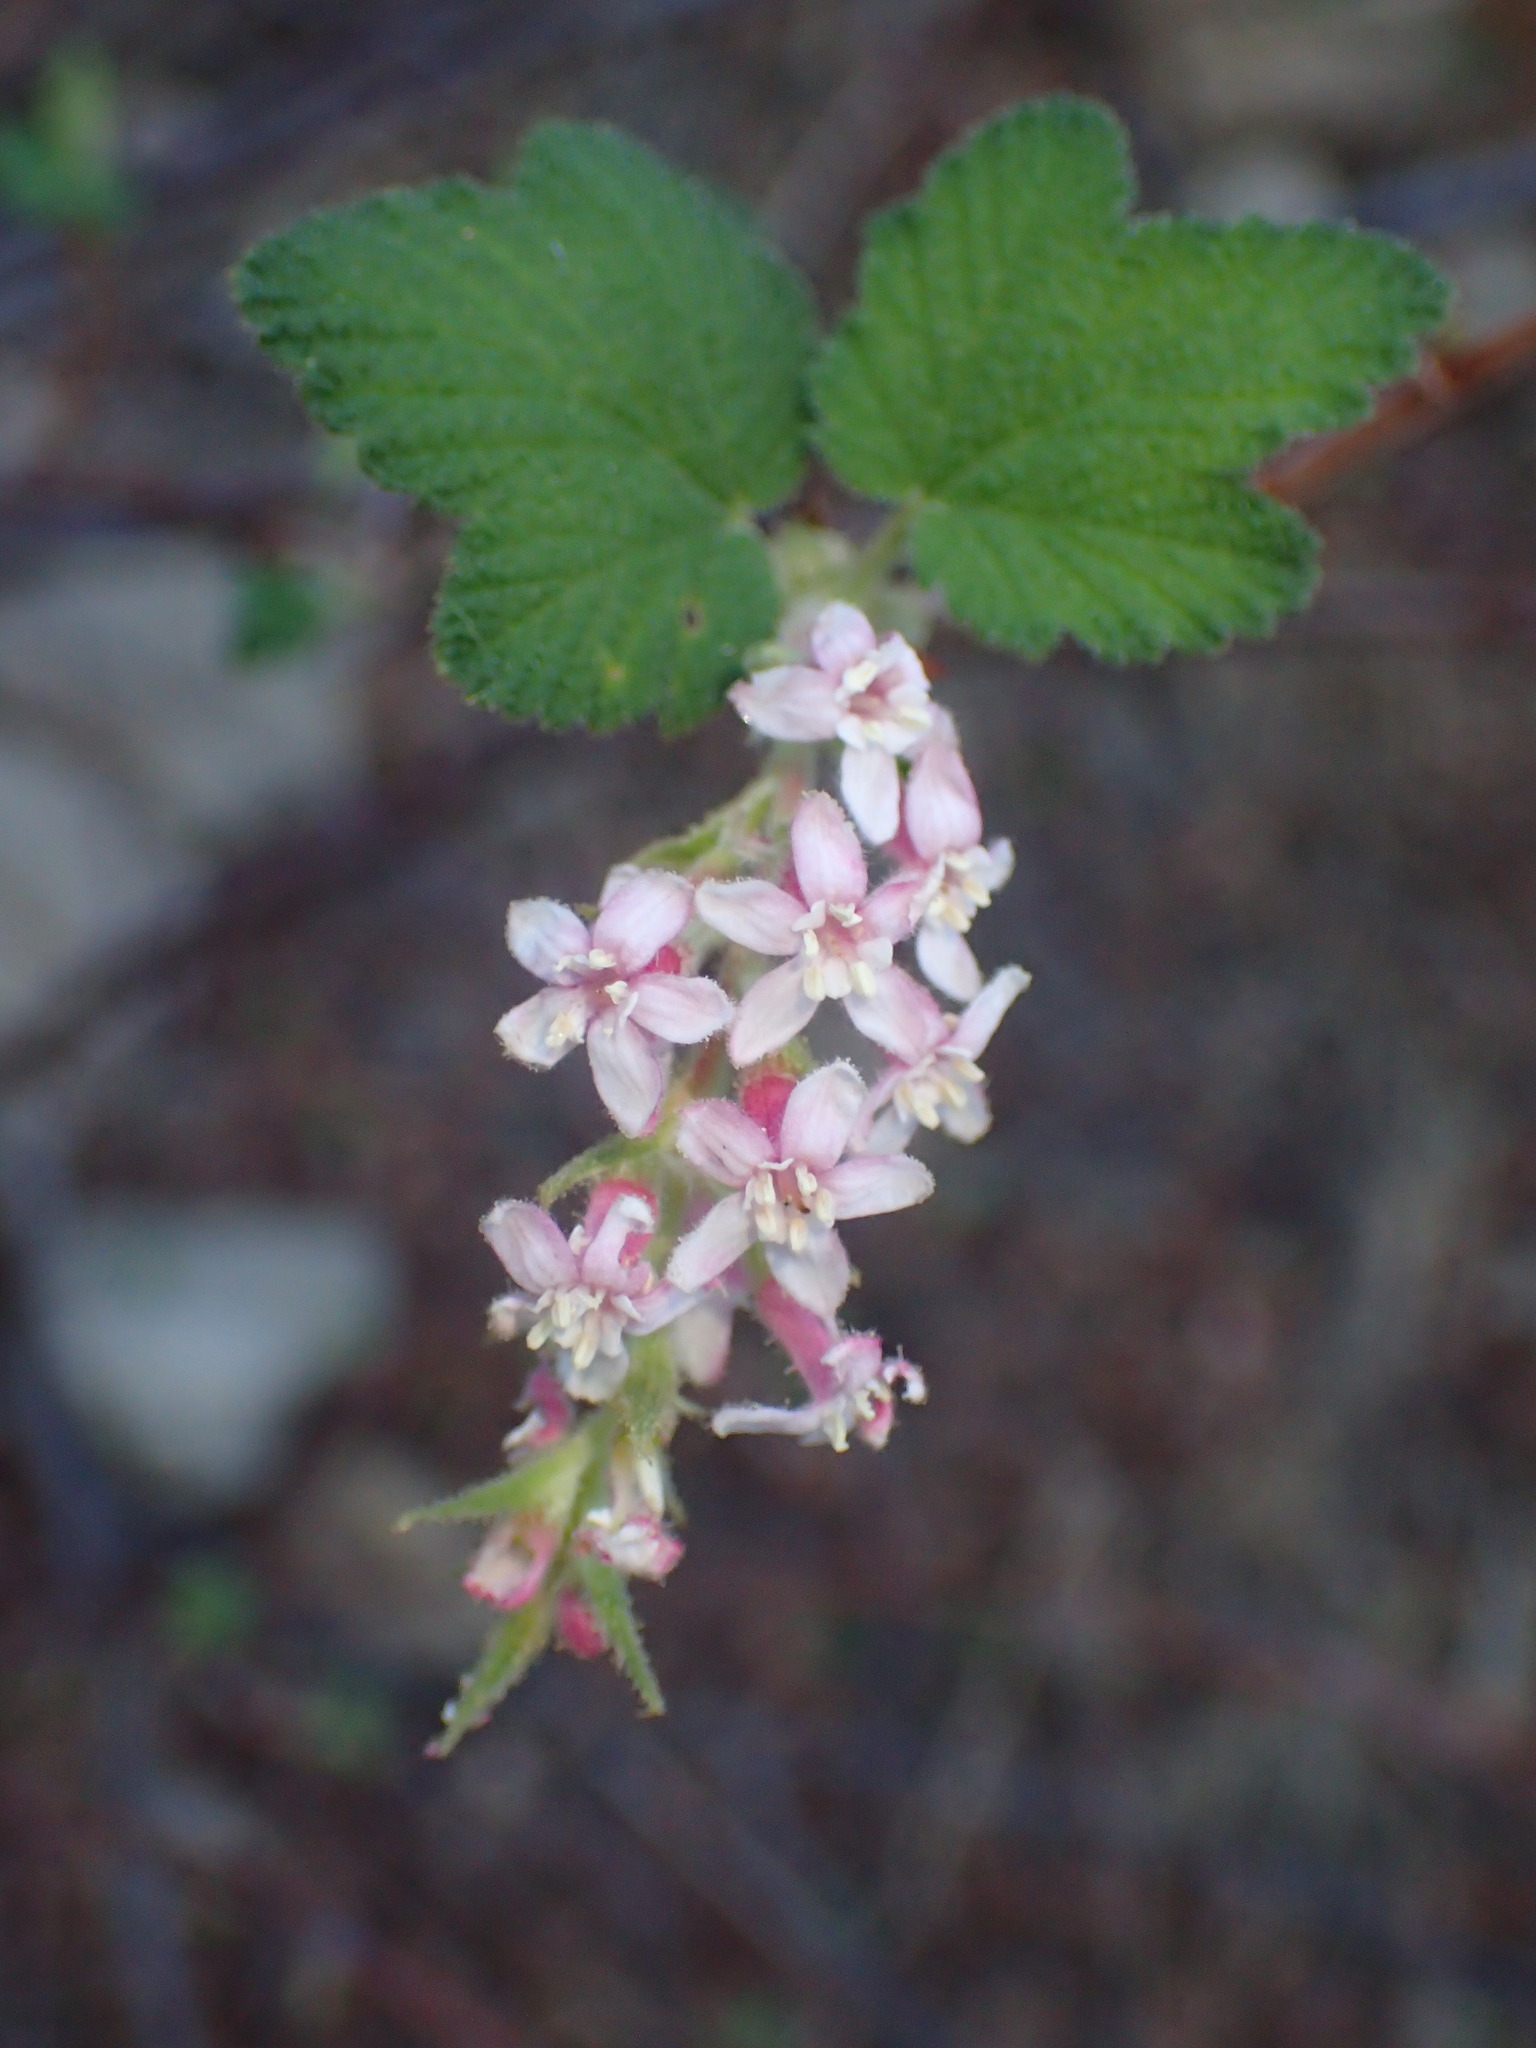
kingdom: Plantae
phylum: Tracheophyta
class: Magnoliopsida
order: Saxifragales
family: Grossulariaceae
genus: Ribes
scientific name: Ribes malvaceum
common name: Chaparral currant
